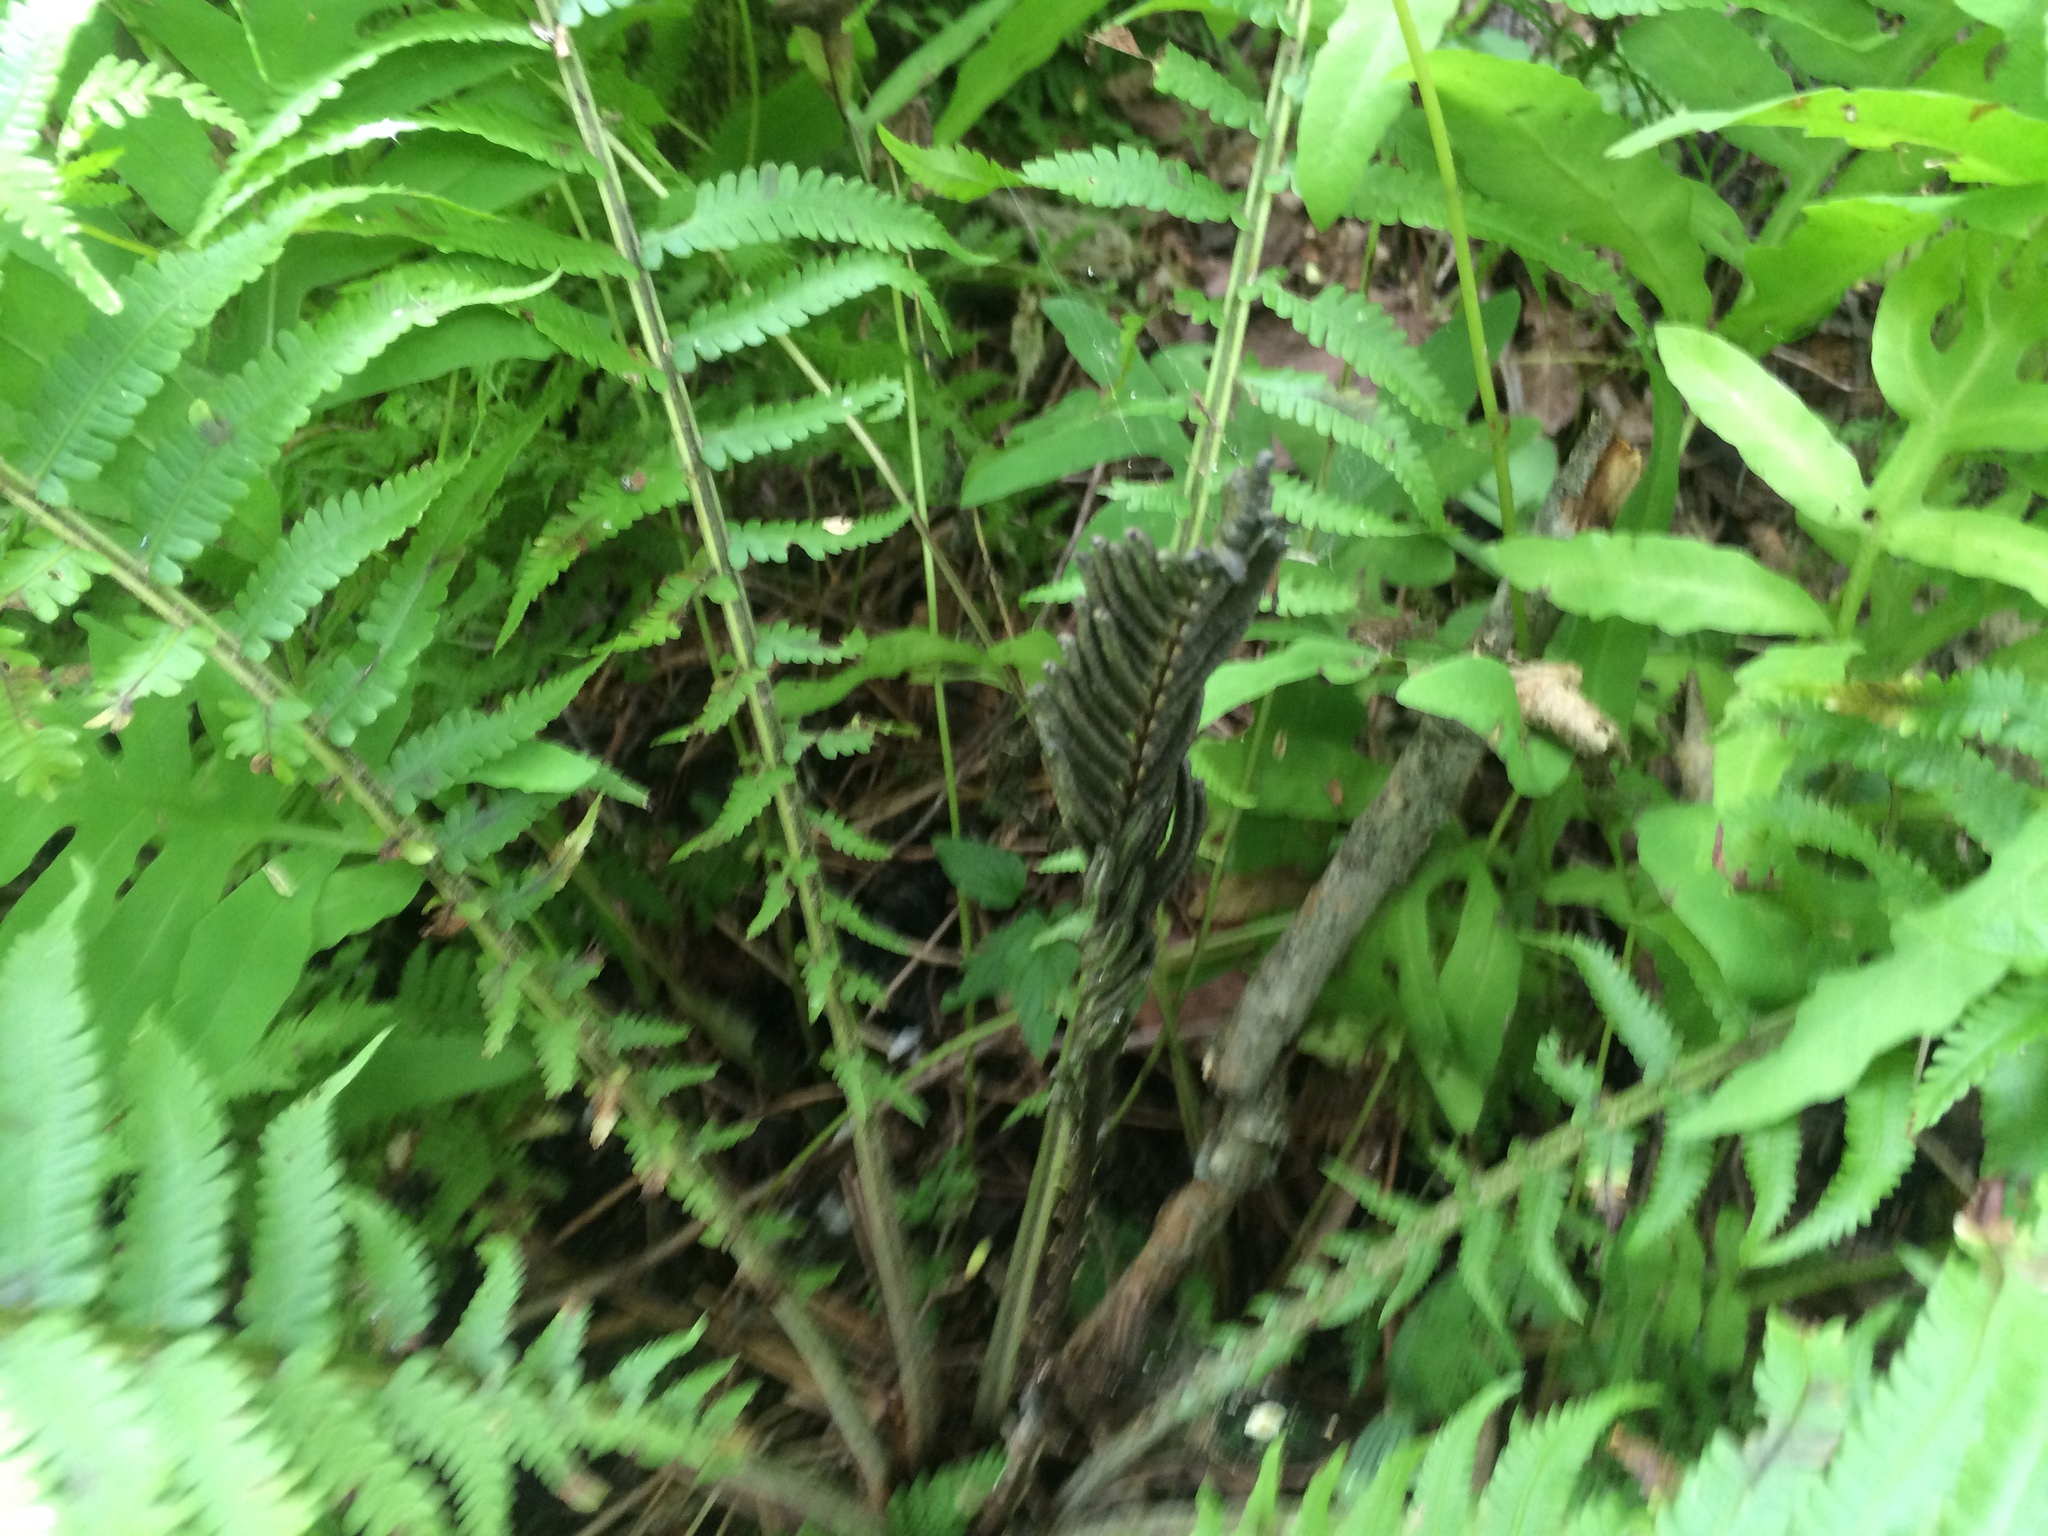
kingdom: Plantae
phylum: Tracheophyta
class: Polypodiopsida
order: Polypodiales
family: Onocleaceae
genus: Matteuccia
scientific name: Matteuccia struthiopteris
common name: Ostrich fern
